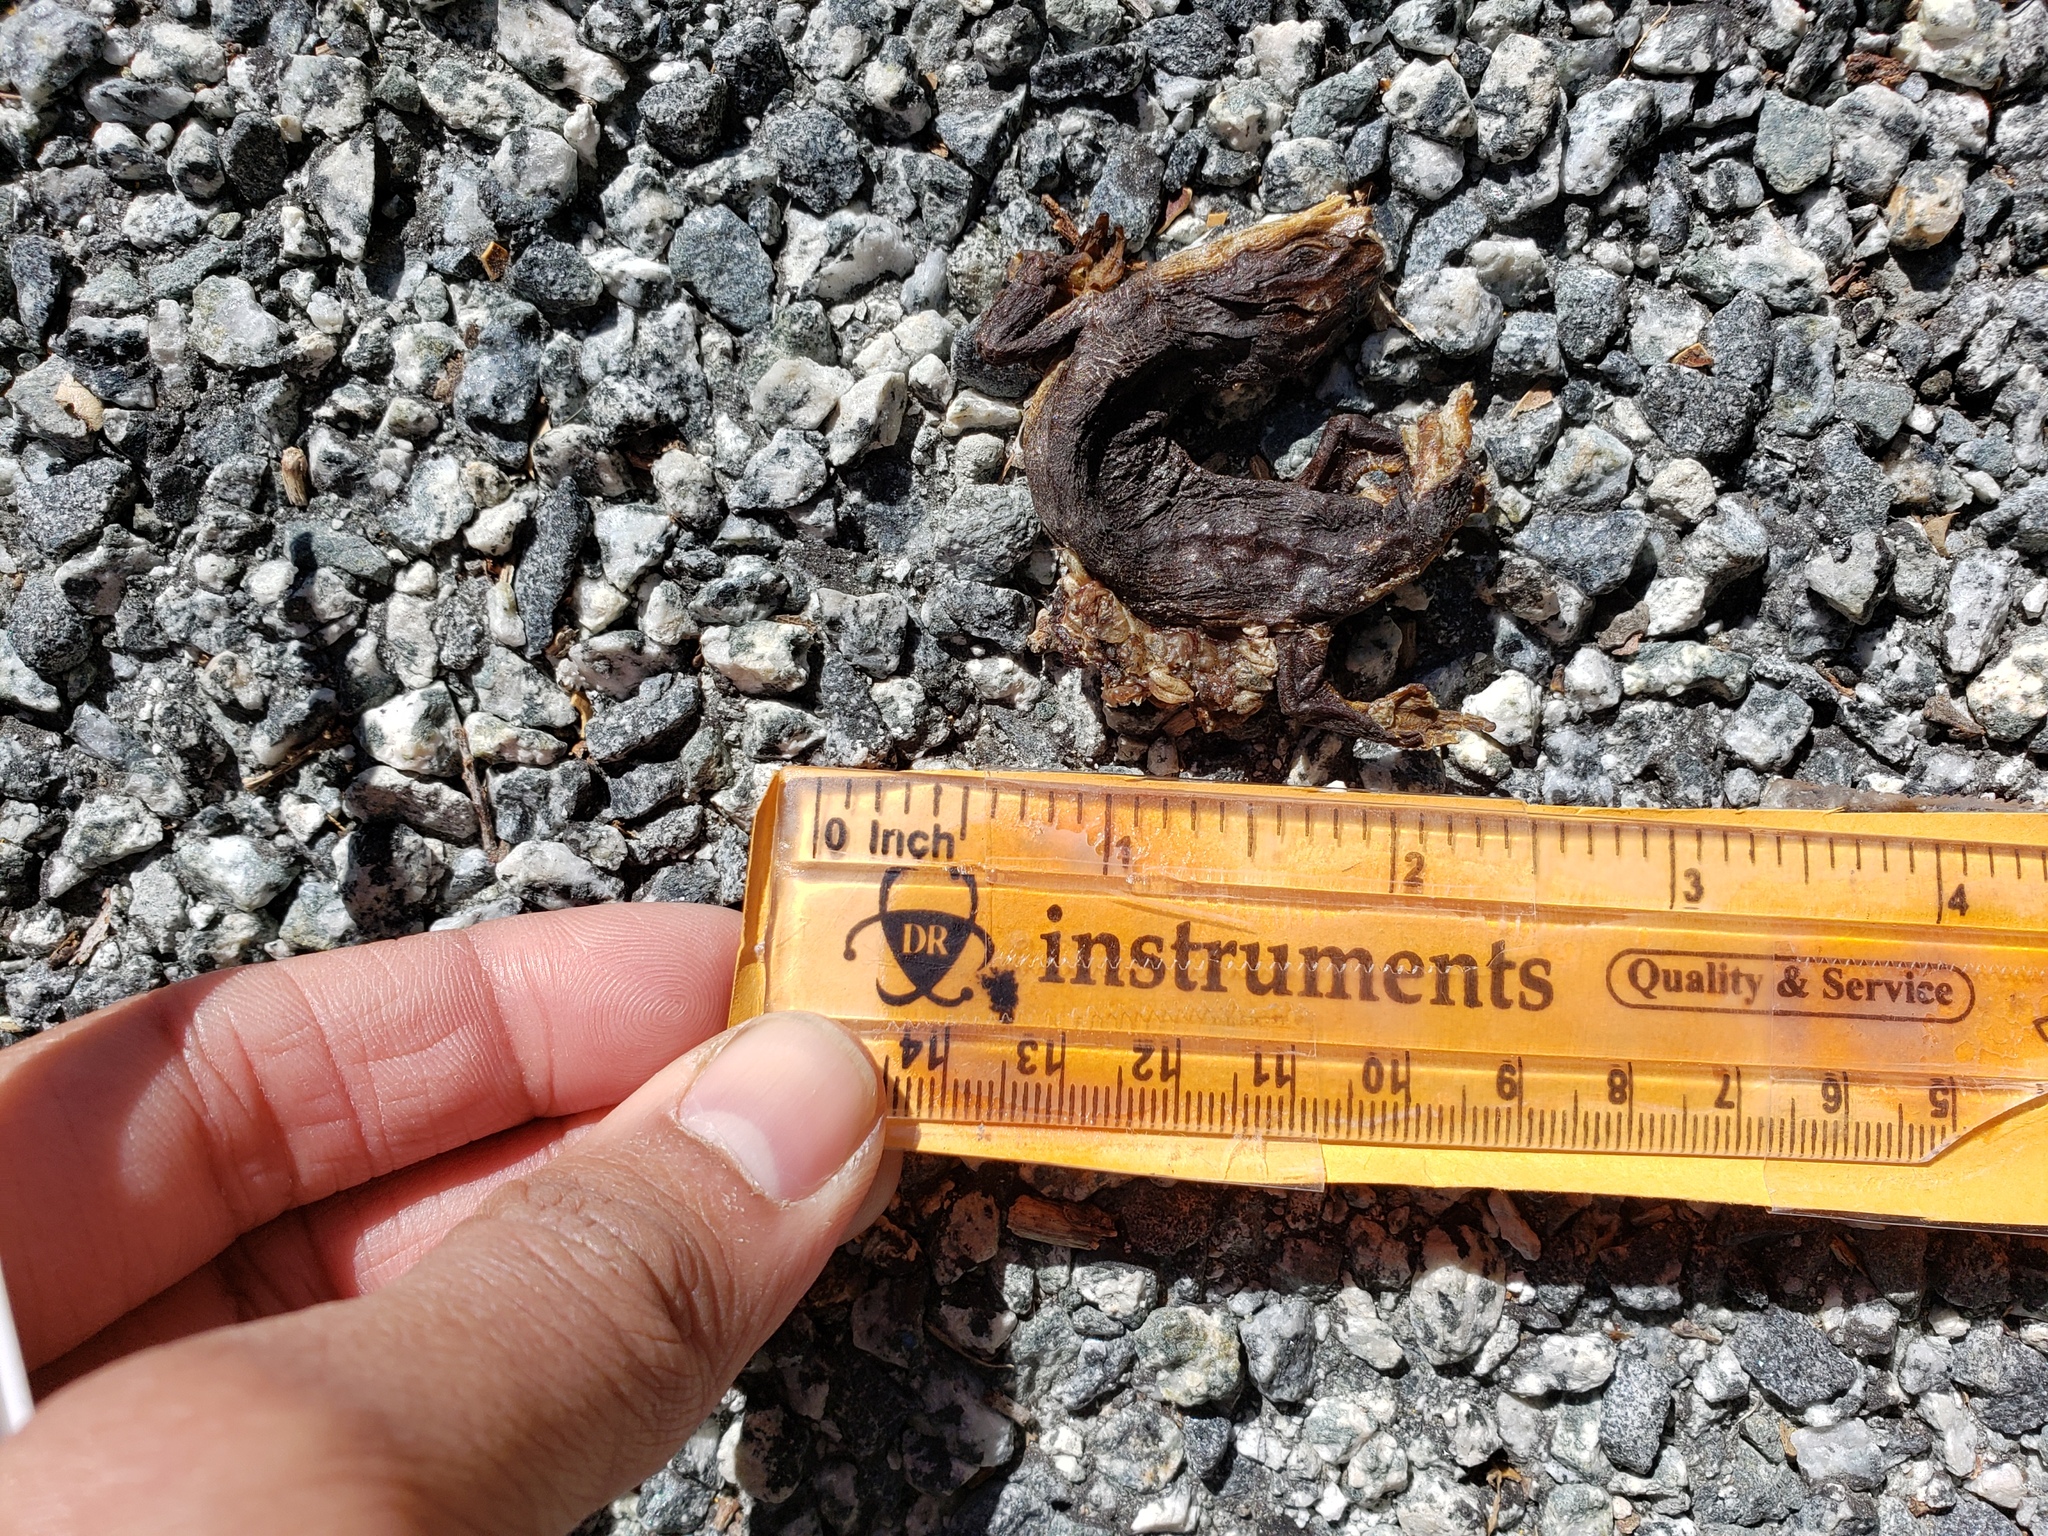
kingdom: Animalia
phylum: Chordata
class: Amphibia
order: Caudata
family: Salamandridae
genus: Taricha
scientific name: Taricha
